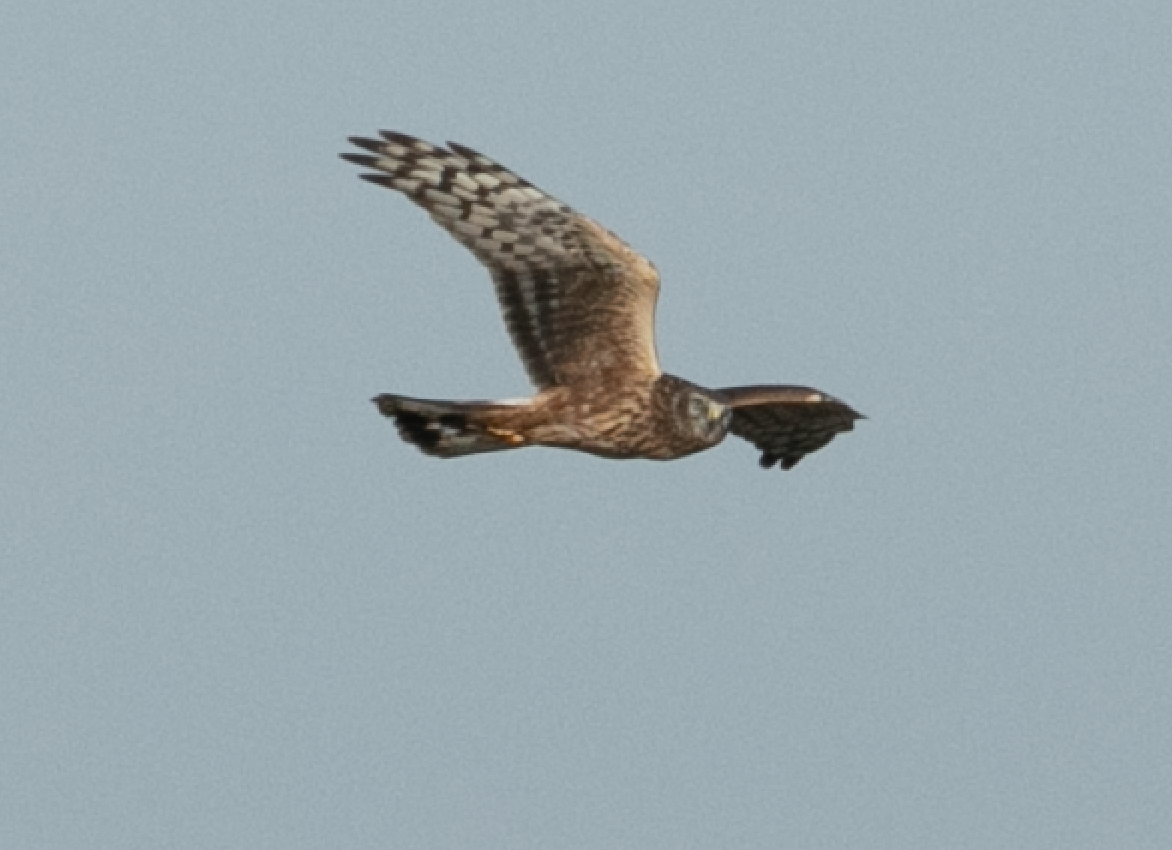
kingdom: Animalia
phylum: Chordata
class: Aves
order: Accipitriformes
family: Accipitridae
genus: Circus
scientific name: Circus cyaneus
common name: Hen harrier
